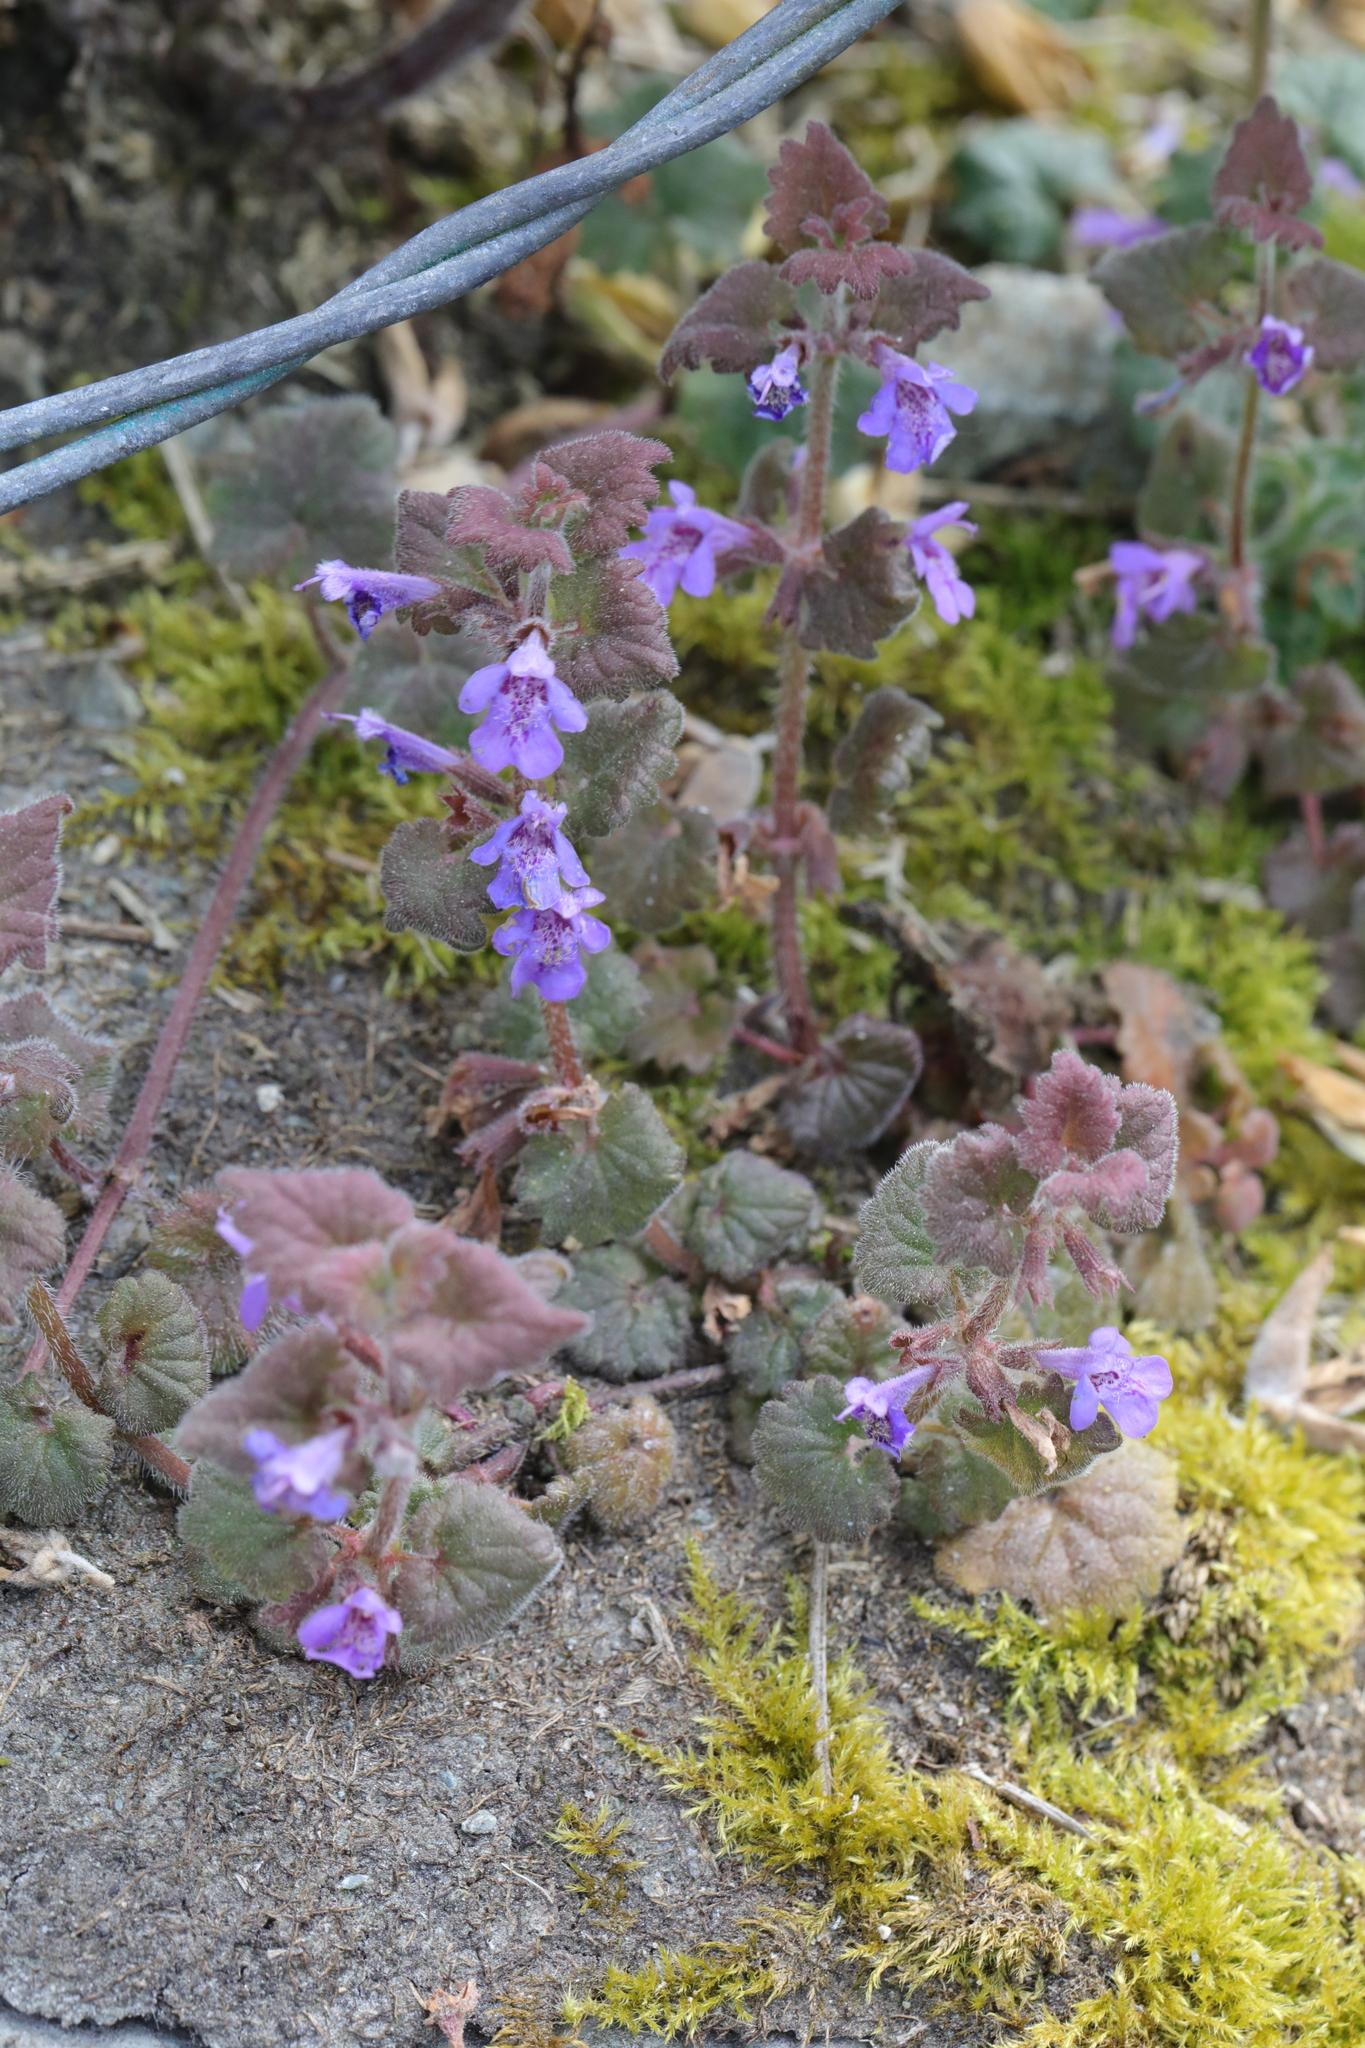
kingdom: Plantae
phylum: Tracheophyta
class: Magnoliopsida
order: Lamiales
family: Lamiaceae
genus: Glechoma
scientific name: Glechoma hederacea
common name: Ground ivy
